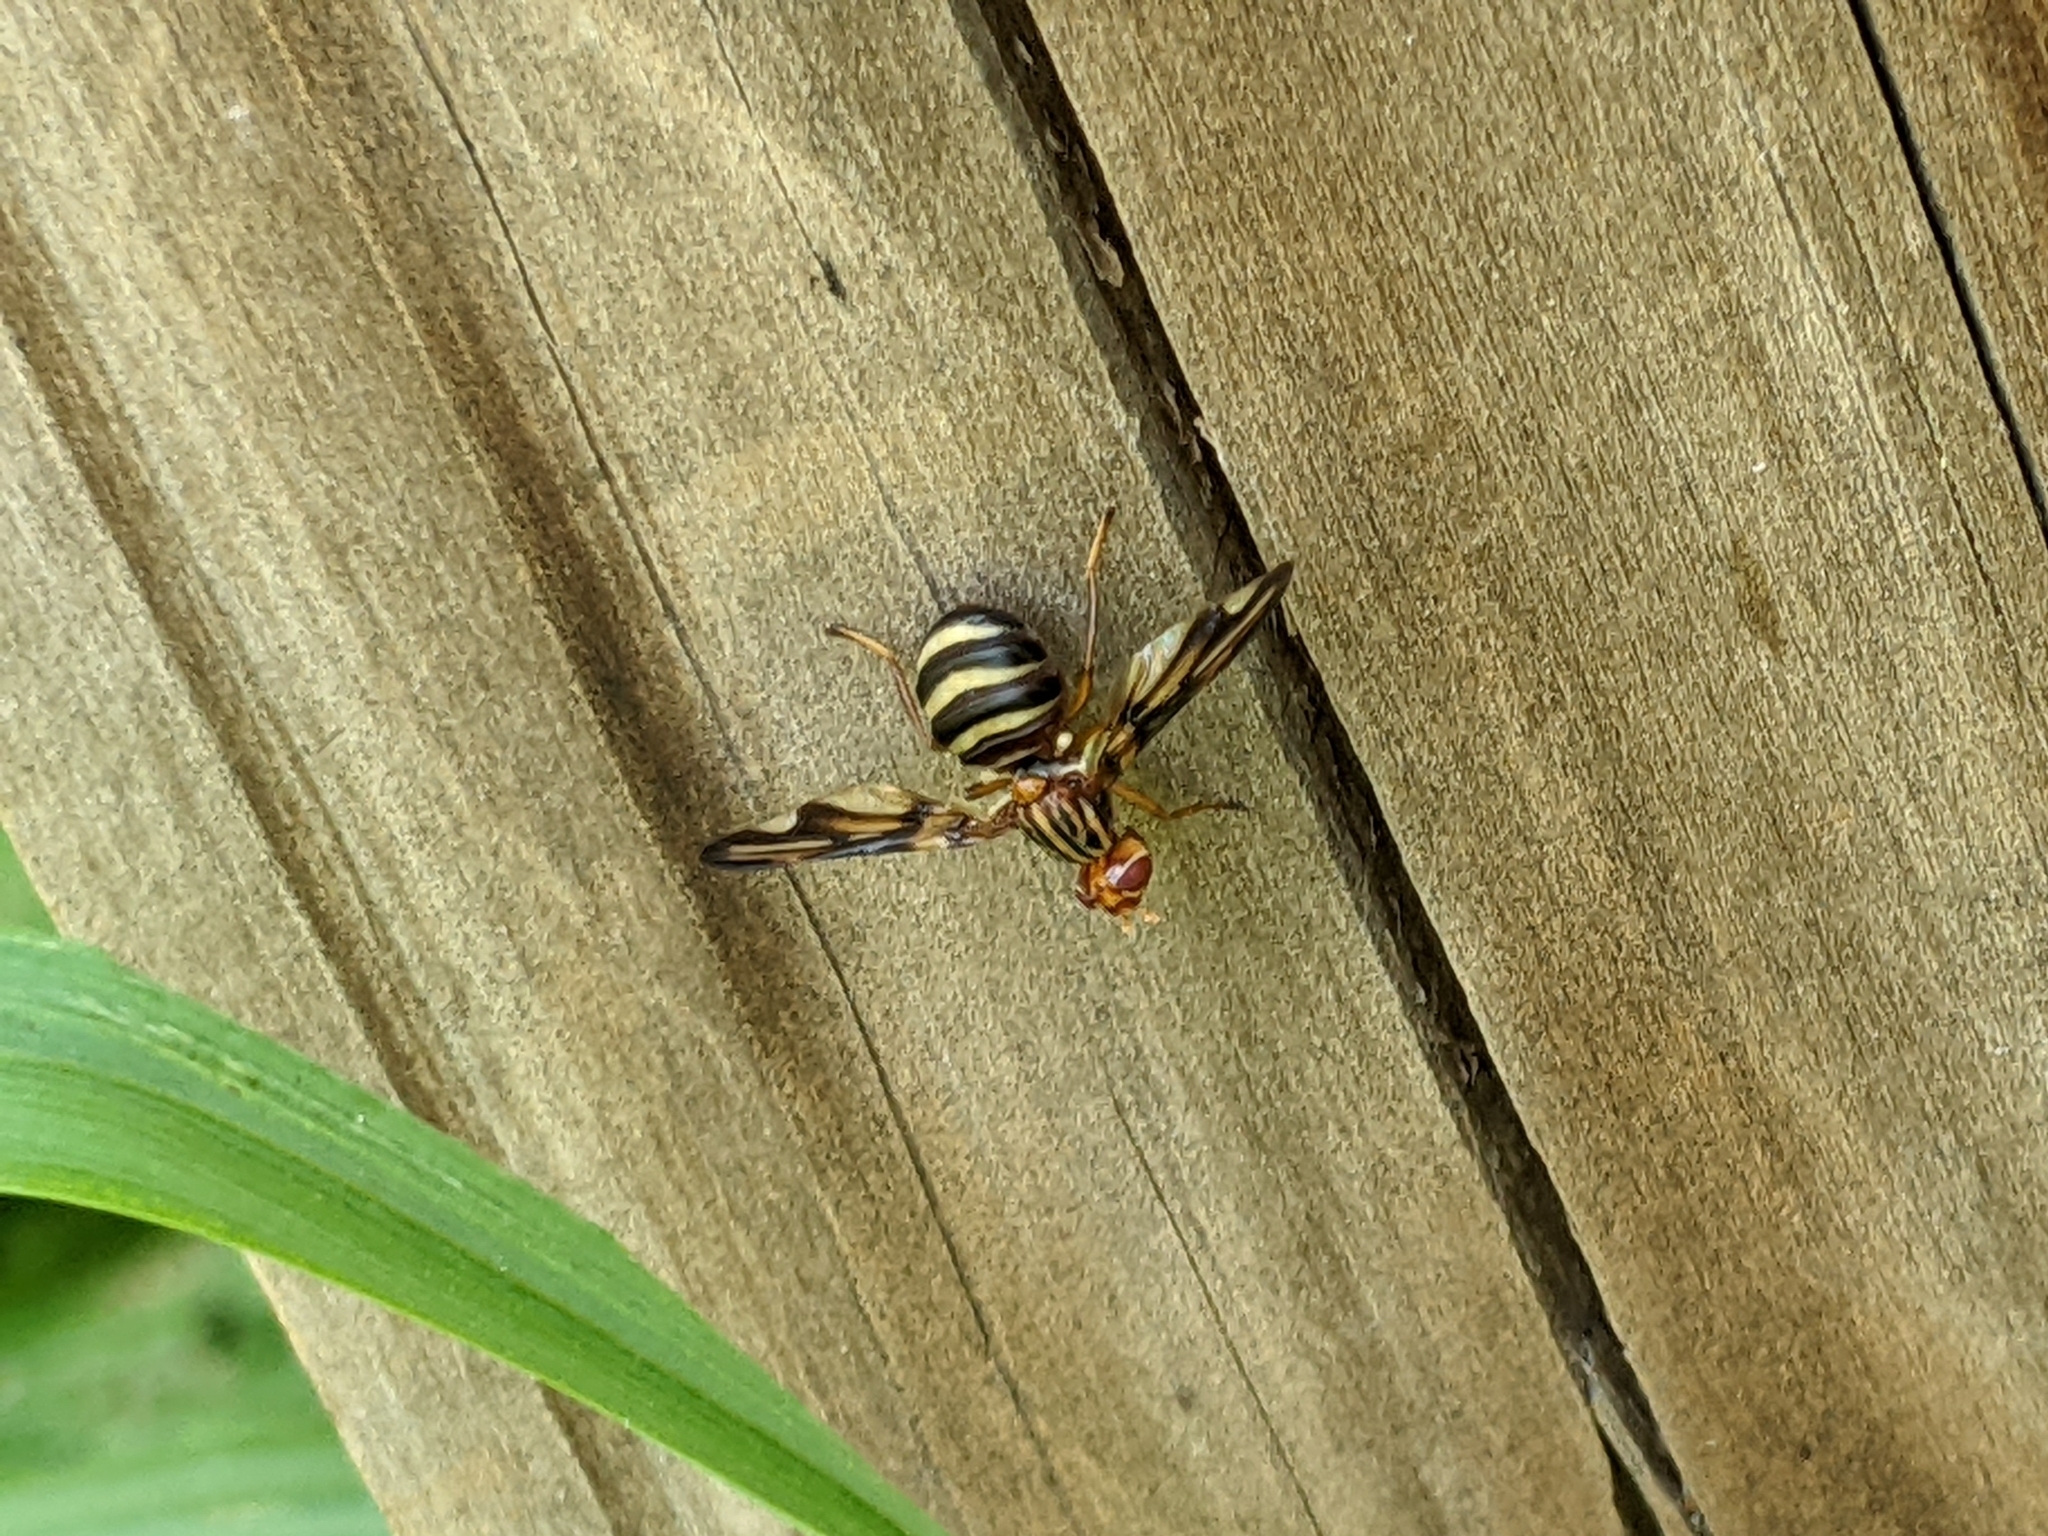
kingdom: Animalia
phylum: Arthropoda
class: Insecta
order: Diptera
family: Ulidiidae
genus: Idana
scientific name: Idana marginata
